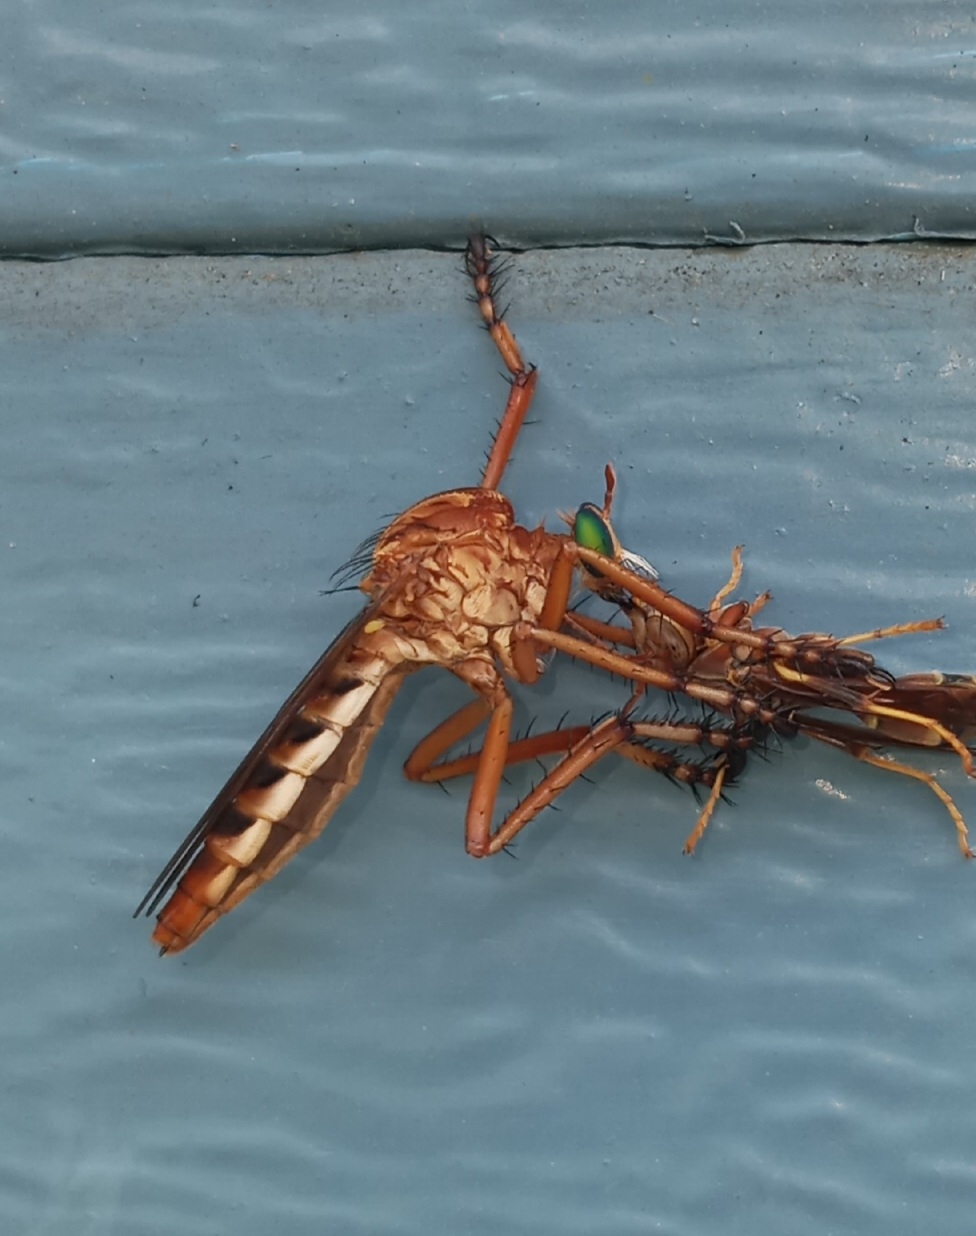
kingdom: Animalia
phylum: Arthropoda
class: Insecta
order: Diptera
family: Asilidae
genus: Diogmites
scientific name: Diogmites crudelis
